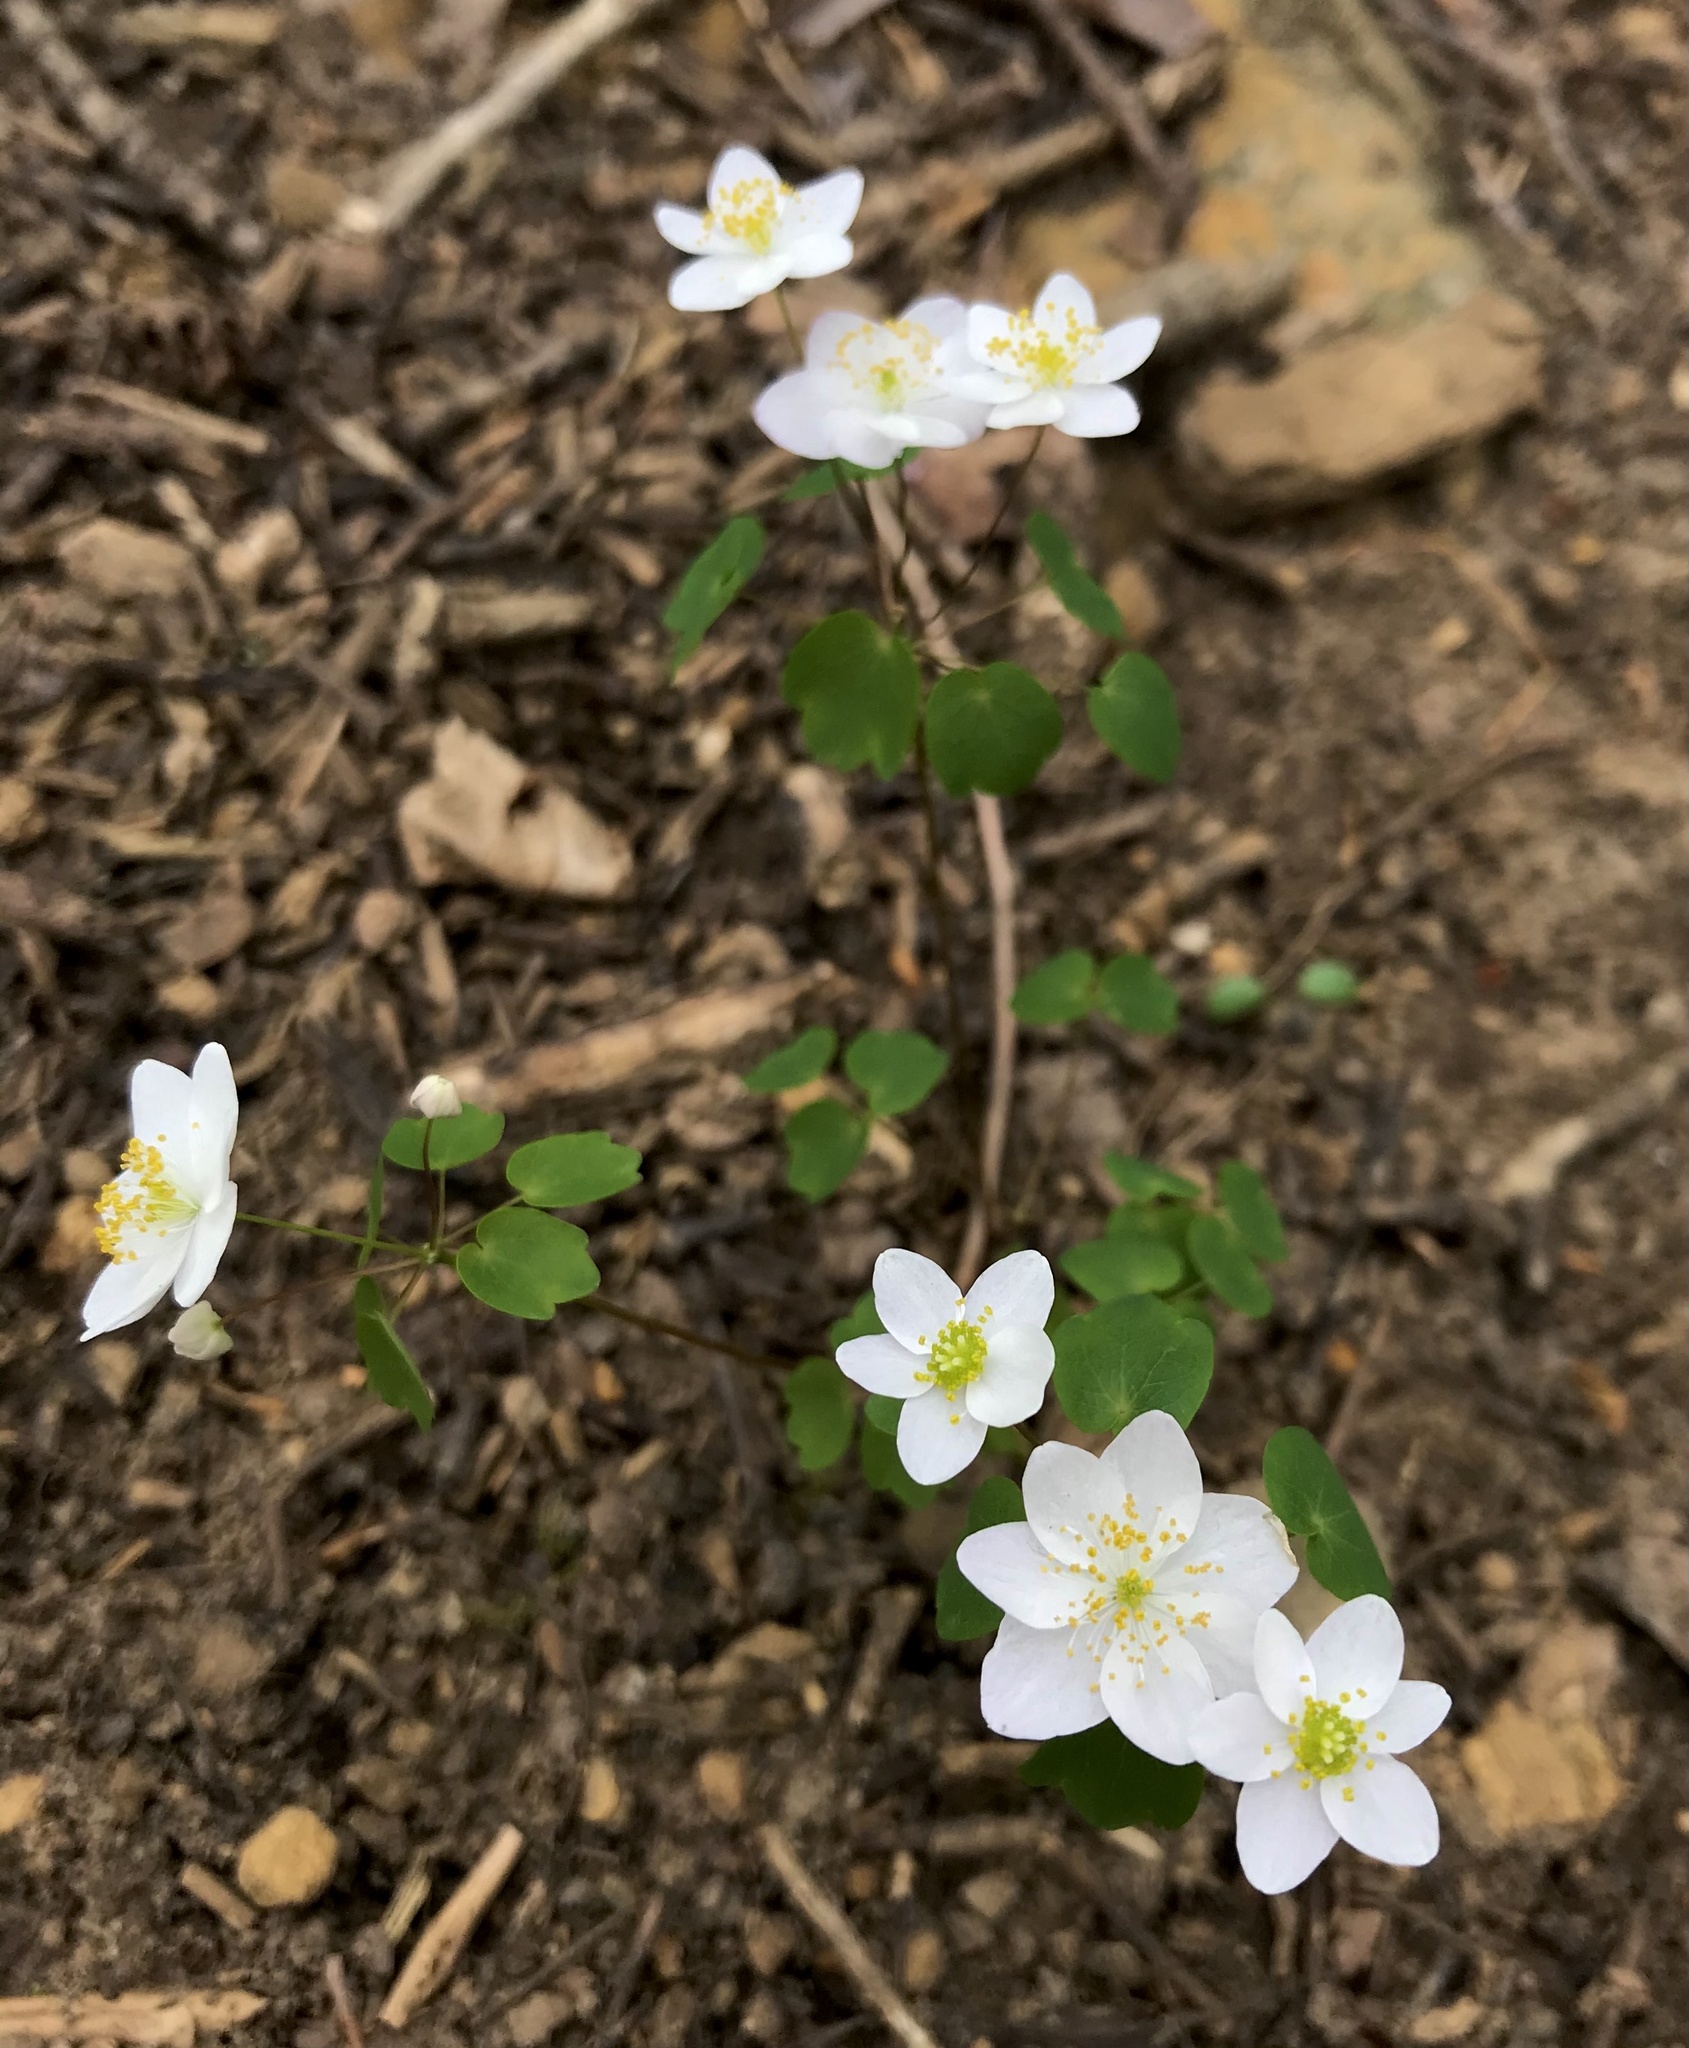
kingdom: Plantae
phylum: Tracheophyta
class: Magnoliopsida
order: Ranunculales
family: Ranunculaceae
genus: Thalictrum
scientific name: Thalictrum thalictroides
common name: Rue-anemone
